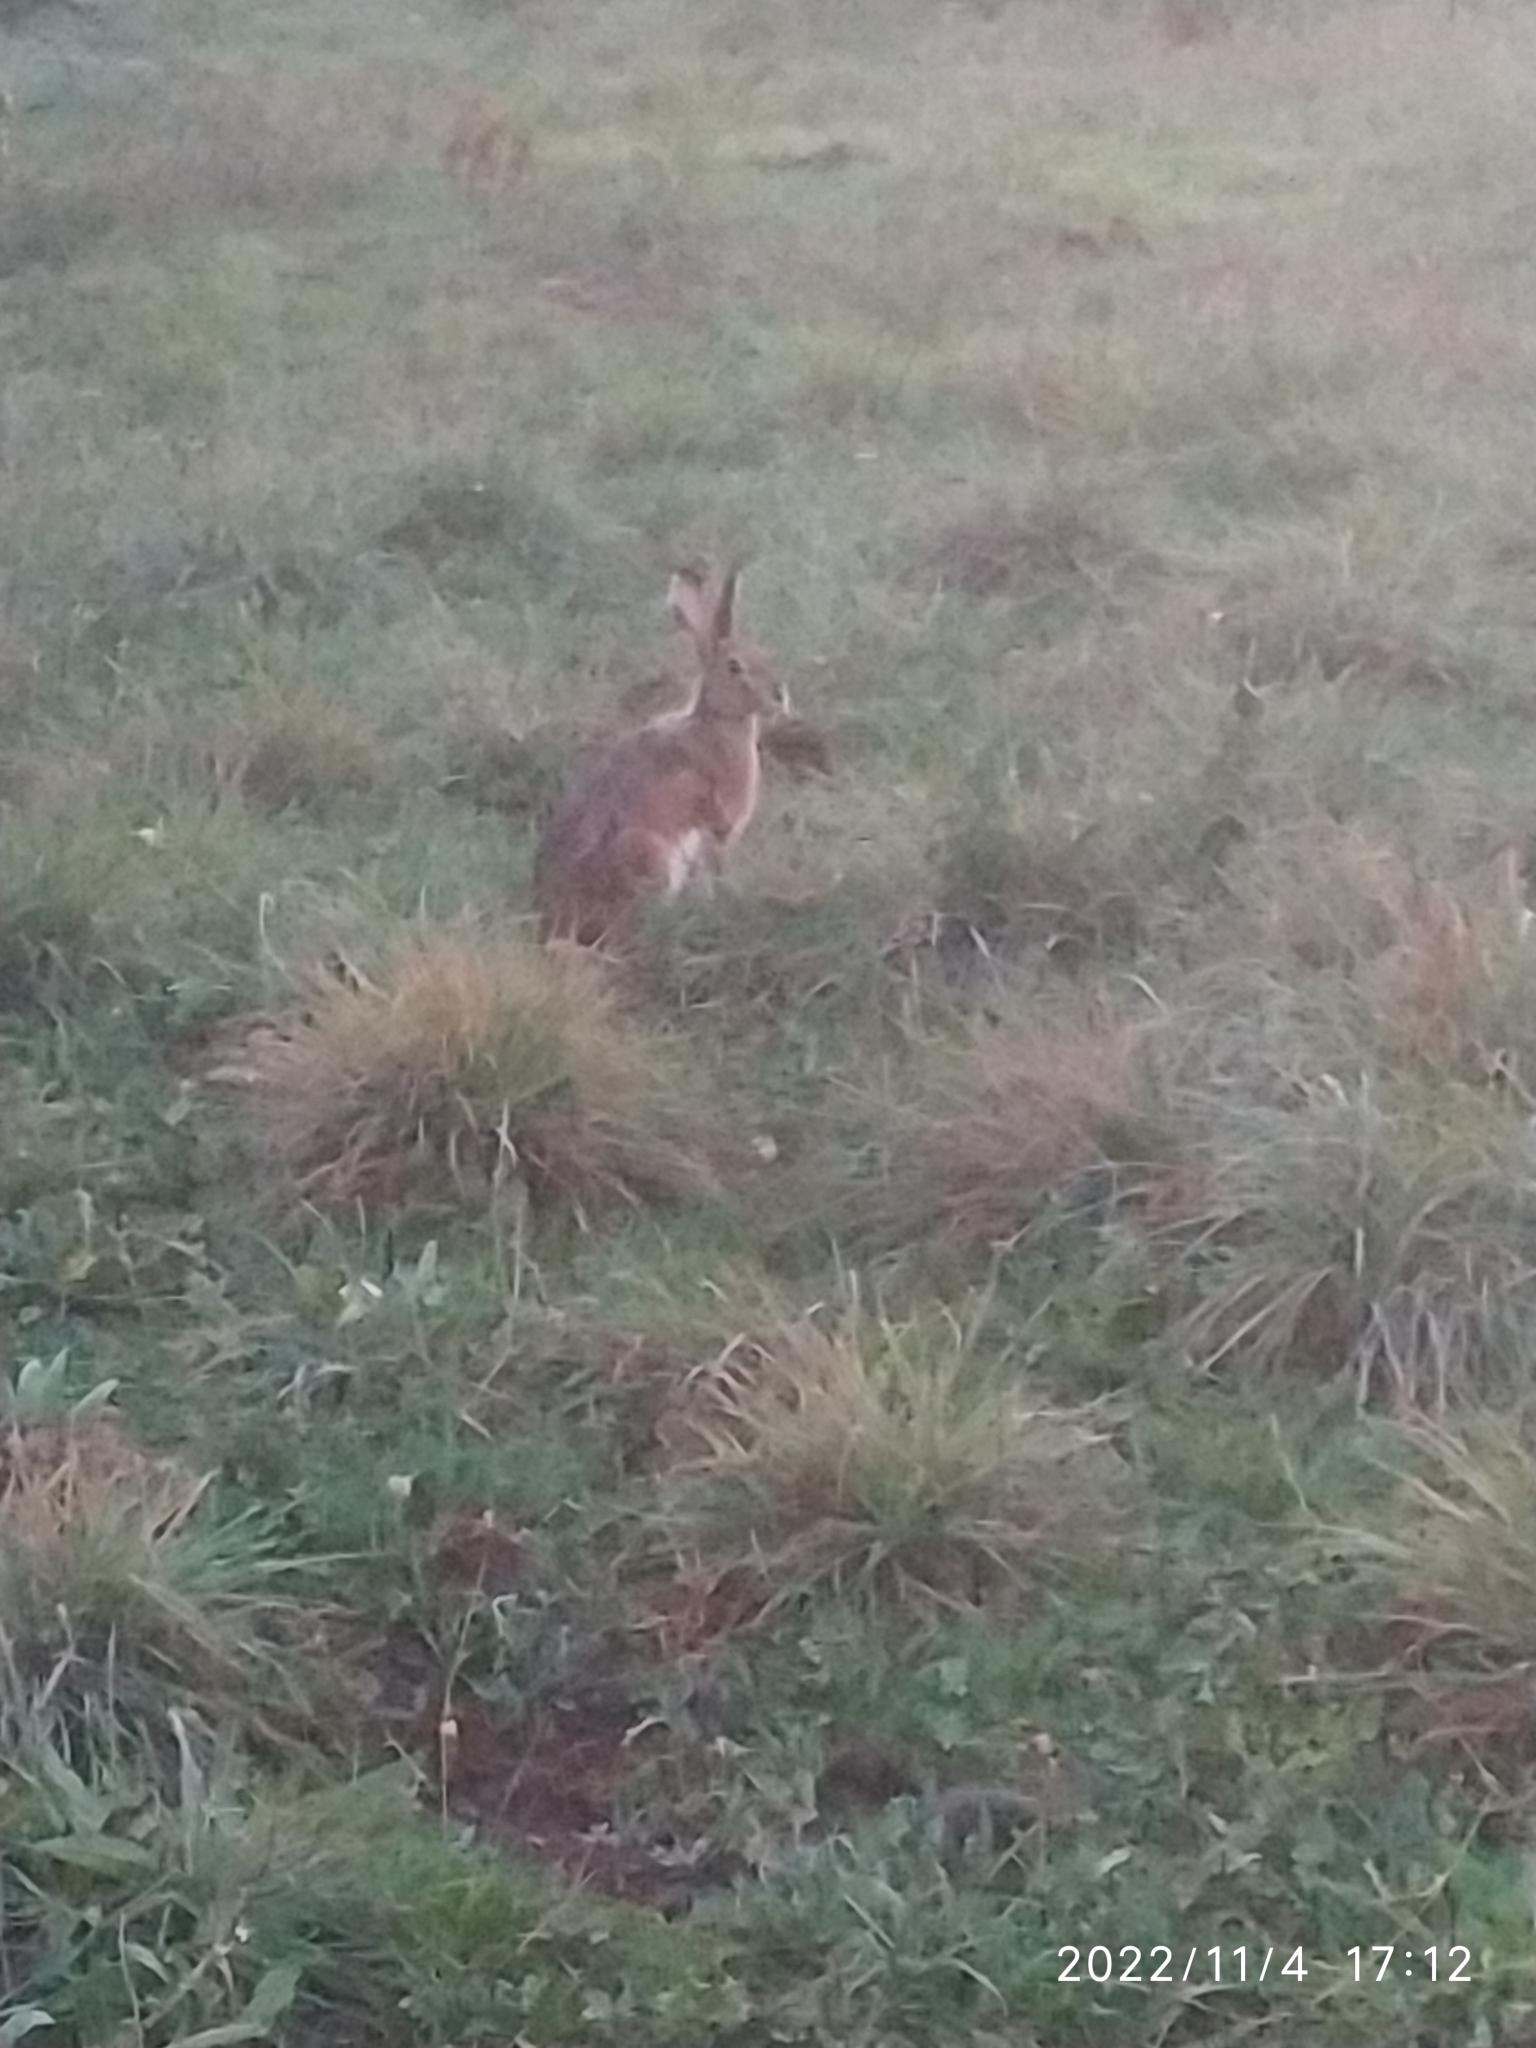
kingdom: Animalia
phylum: Chordata
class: Mammalia
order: Lagomorpha
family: Leporidae
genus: Lepus
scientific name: Lepus corsicanus
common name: Corsican hare
